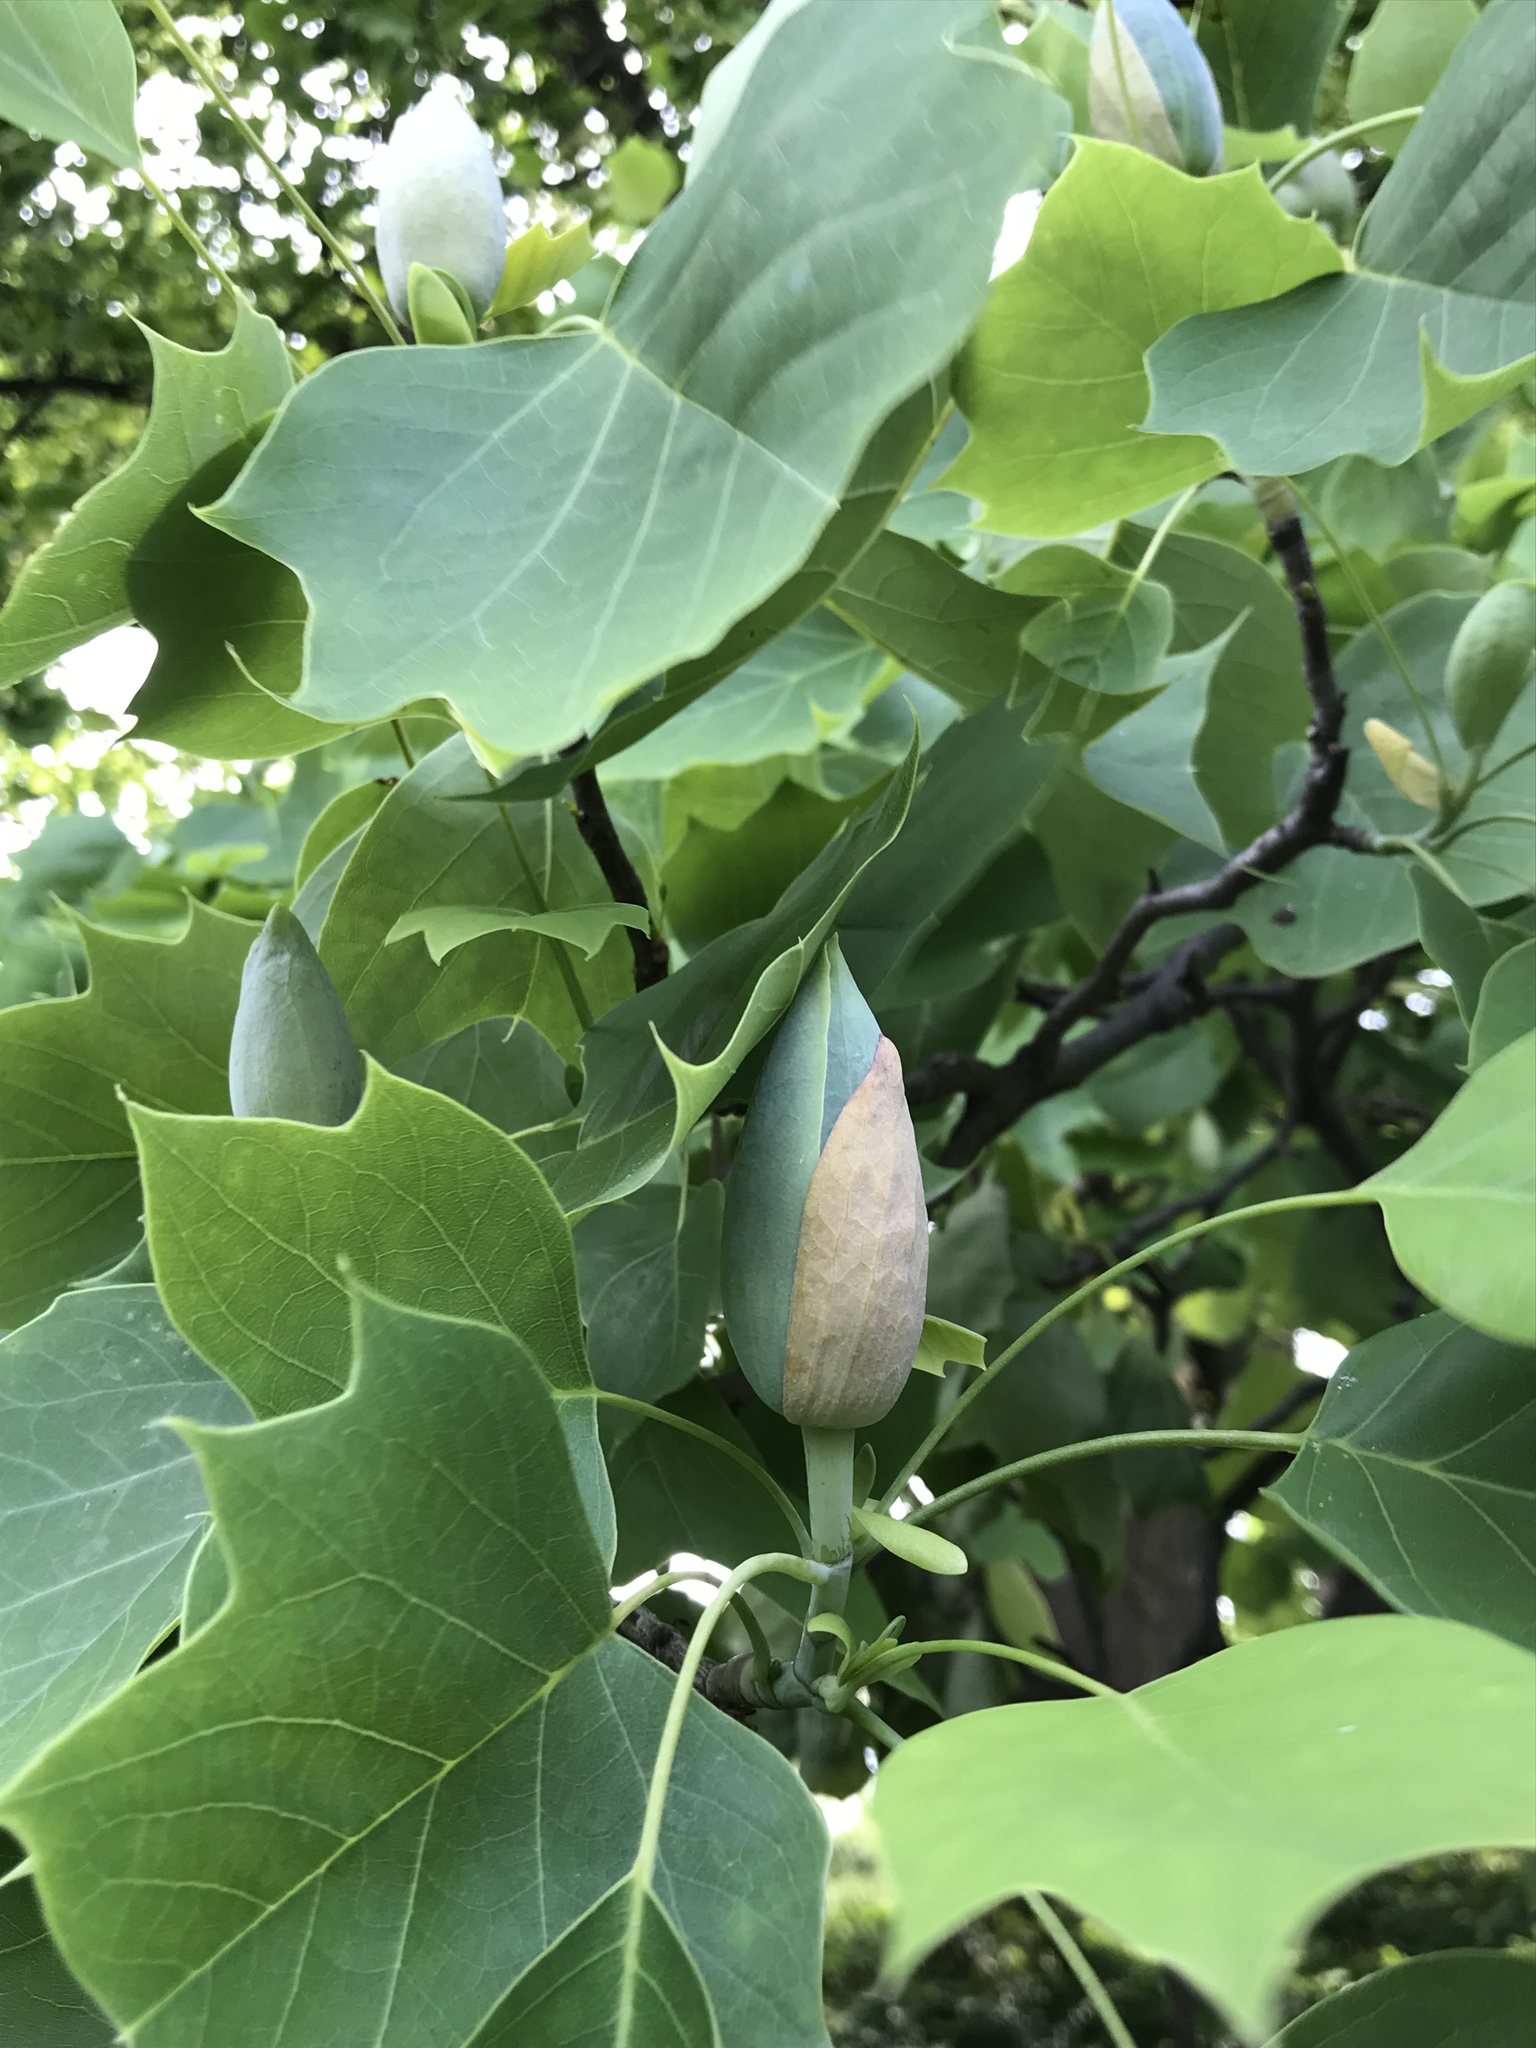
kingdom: Plantae
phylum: Tracheophyta
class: Magnoliopsida
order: Magnoliales
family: Magnoliaceae
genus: Liriodendron
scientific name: Liriodendron tulipifera
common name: Tulip tree
